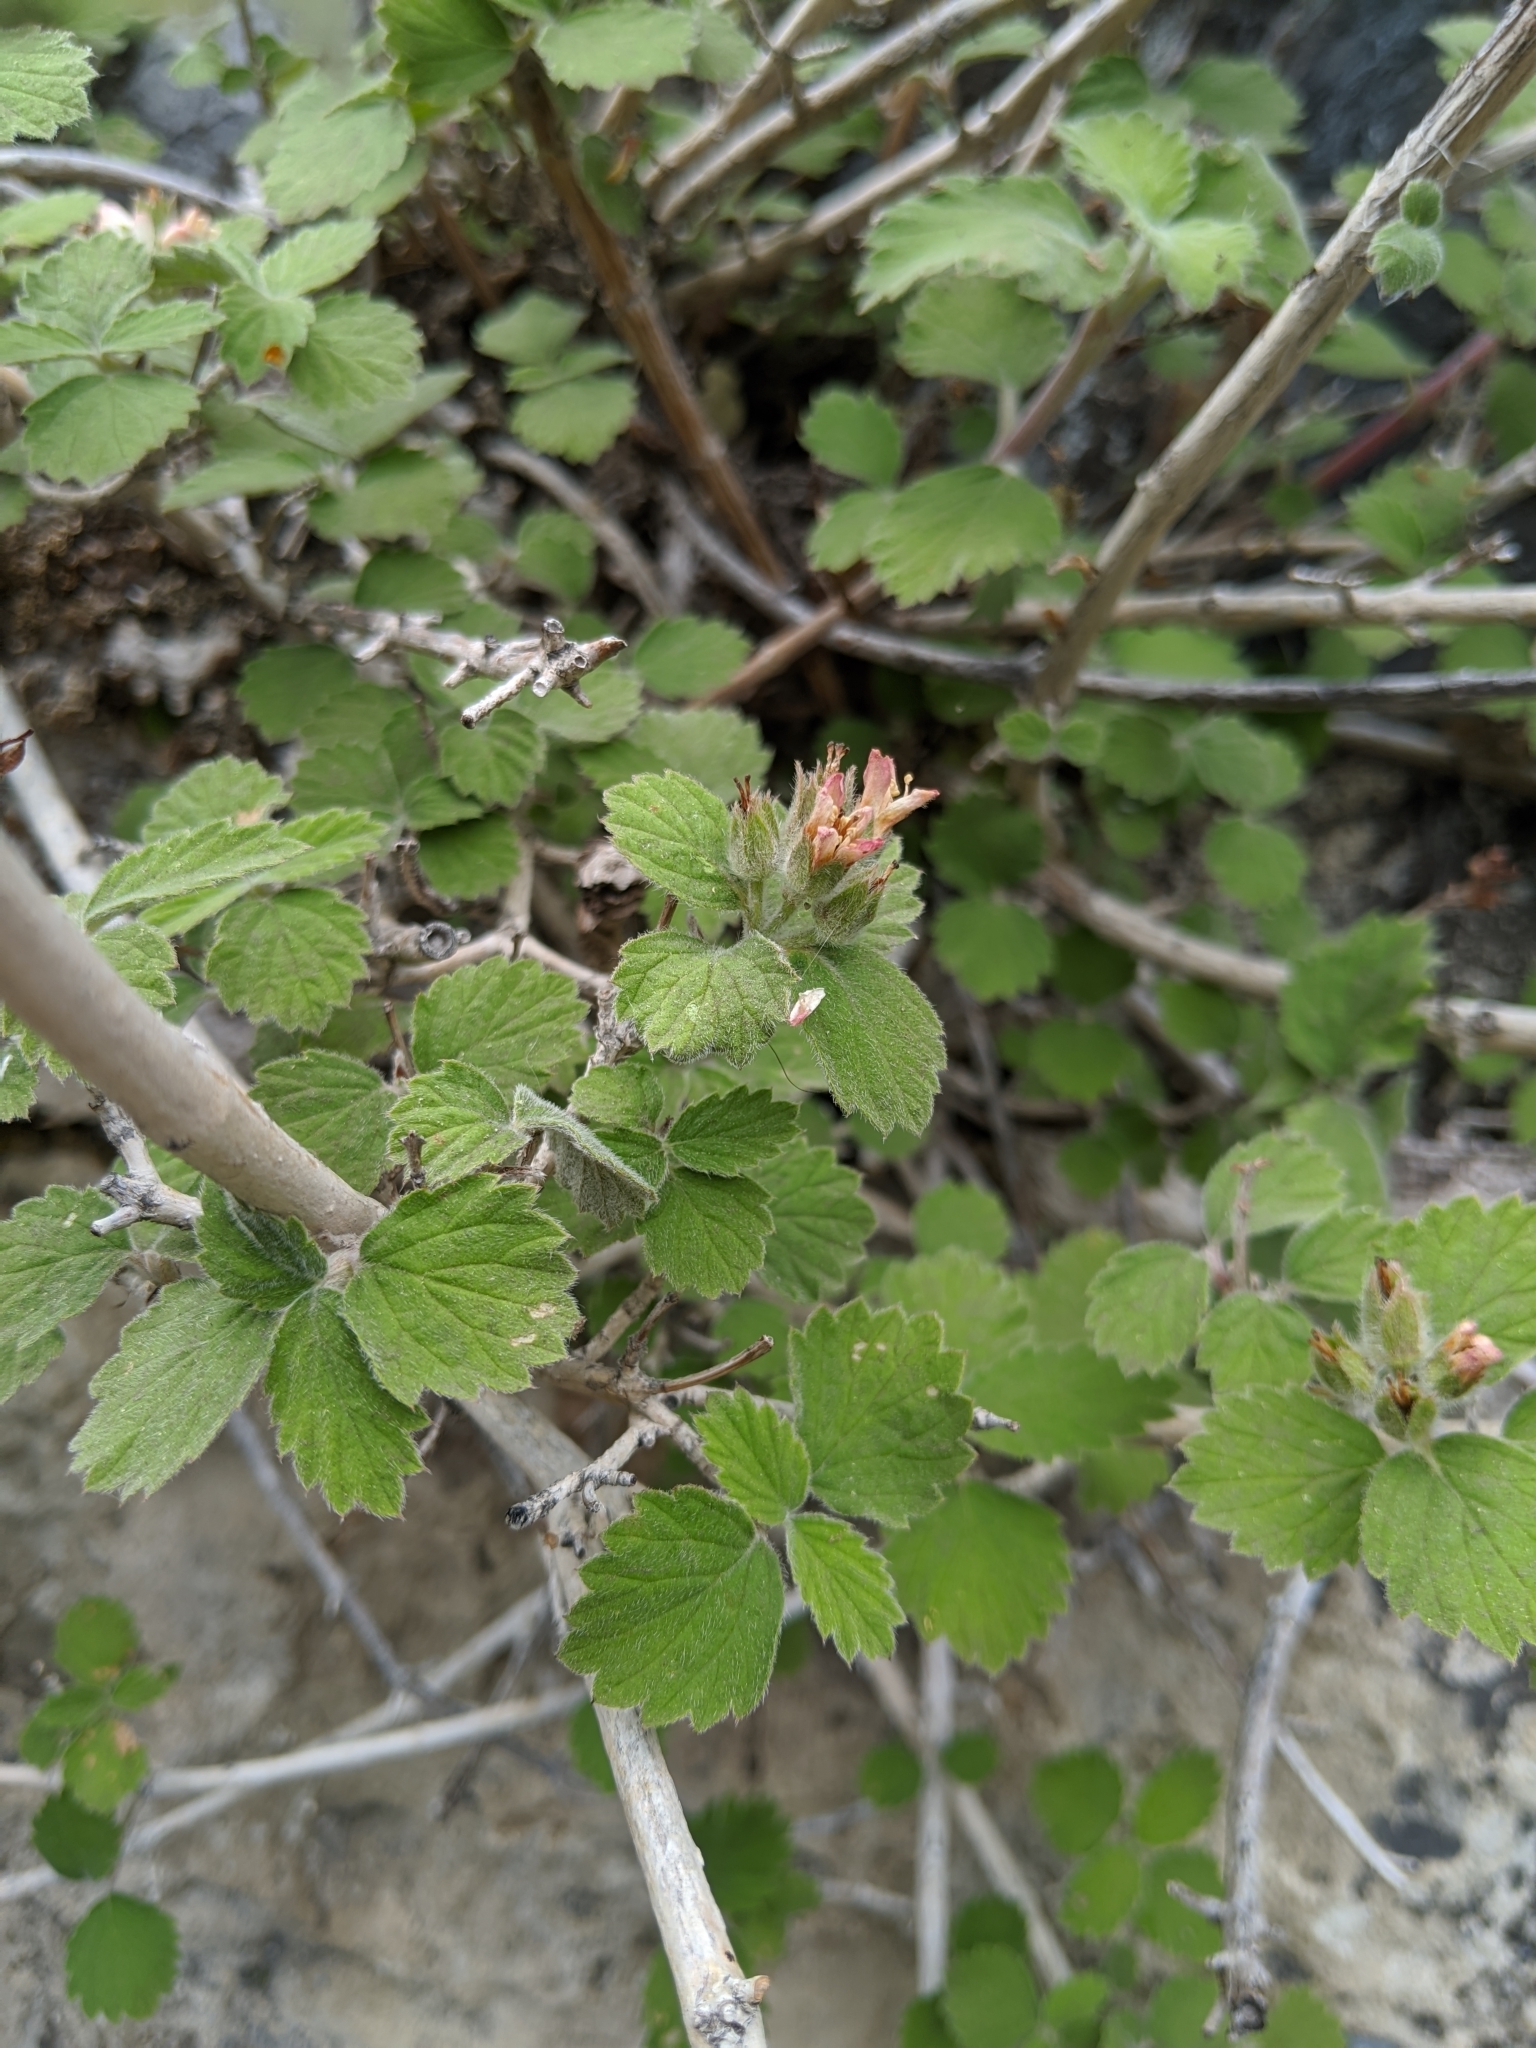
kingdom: Plantae
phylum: Tracheophyta
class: Magnoliopsida
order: Cornales
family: Hydrangeaceae
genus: Jamesia
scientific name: Jamesia americana
